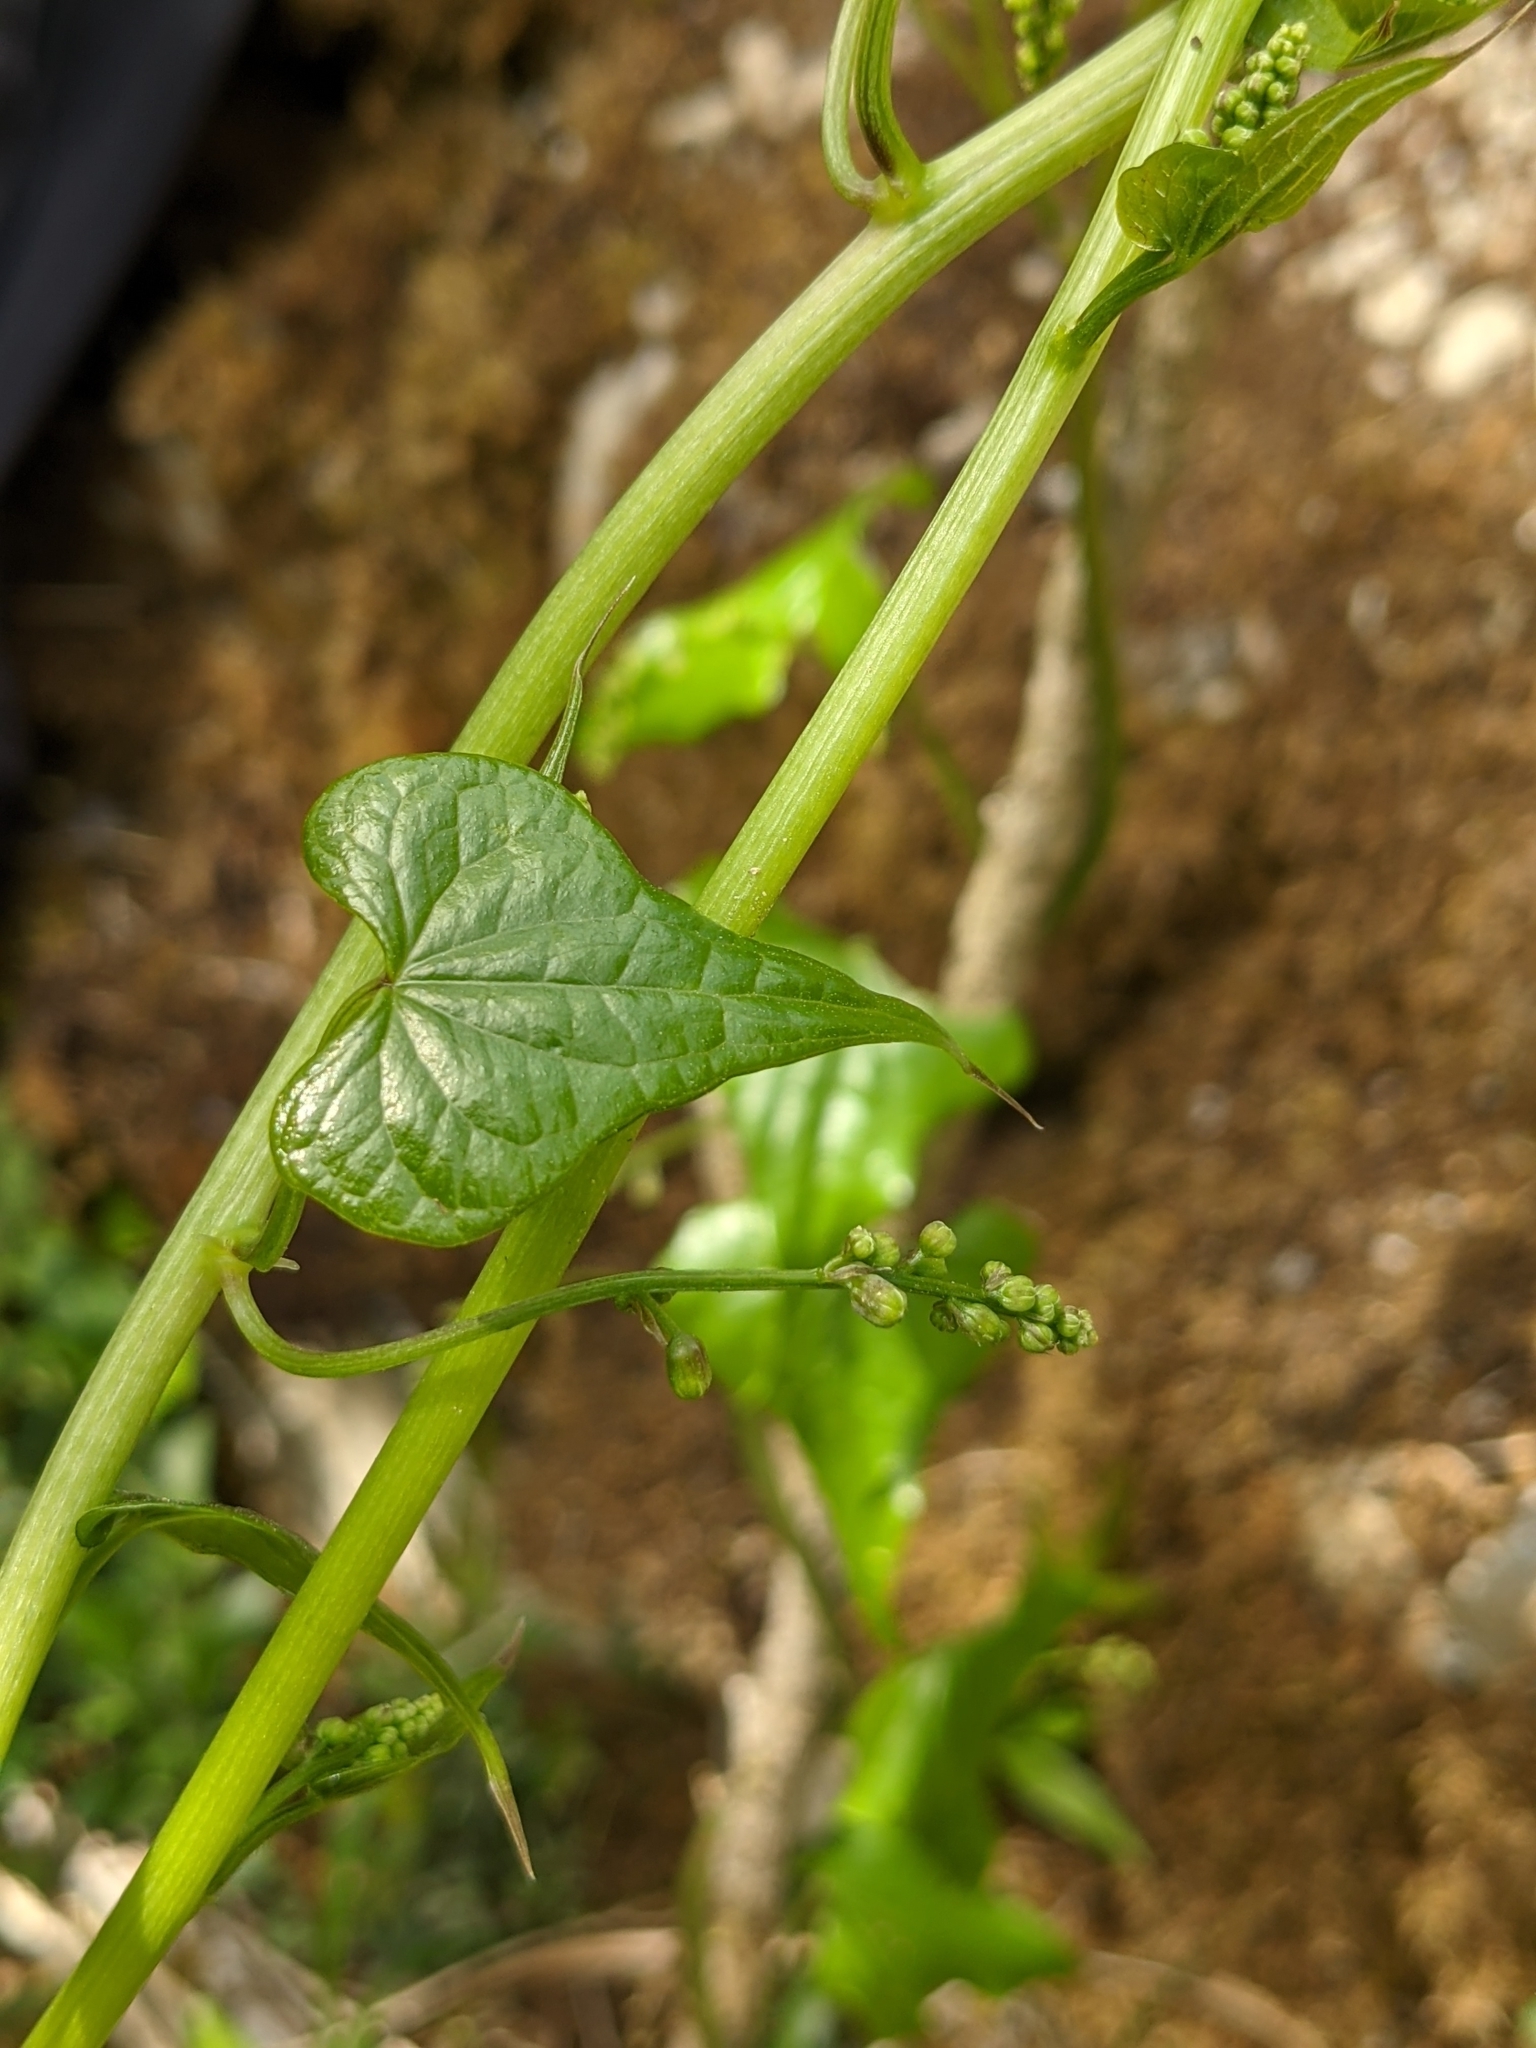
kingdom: Plantae
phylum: Tracheophyta
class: Liliopsida
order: Dioscoreales
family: Dioscoreaceae
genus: Dioscorea
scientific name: Dioscorea communis
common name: Black-bindweed
